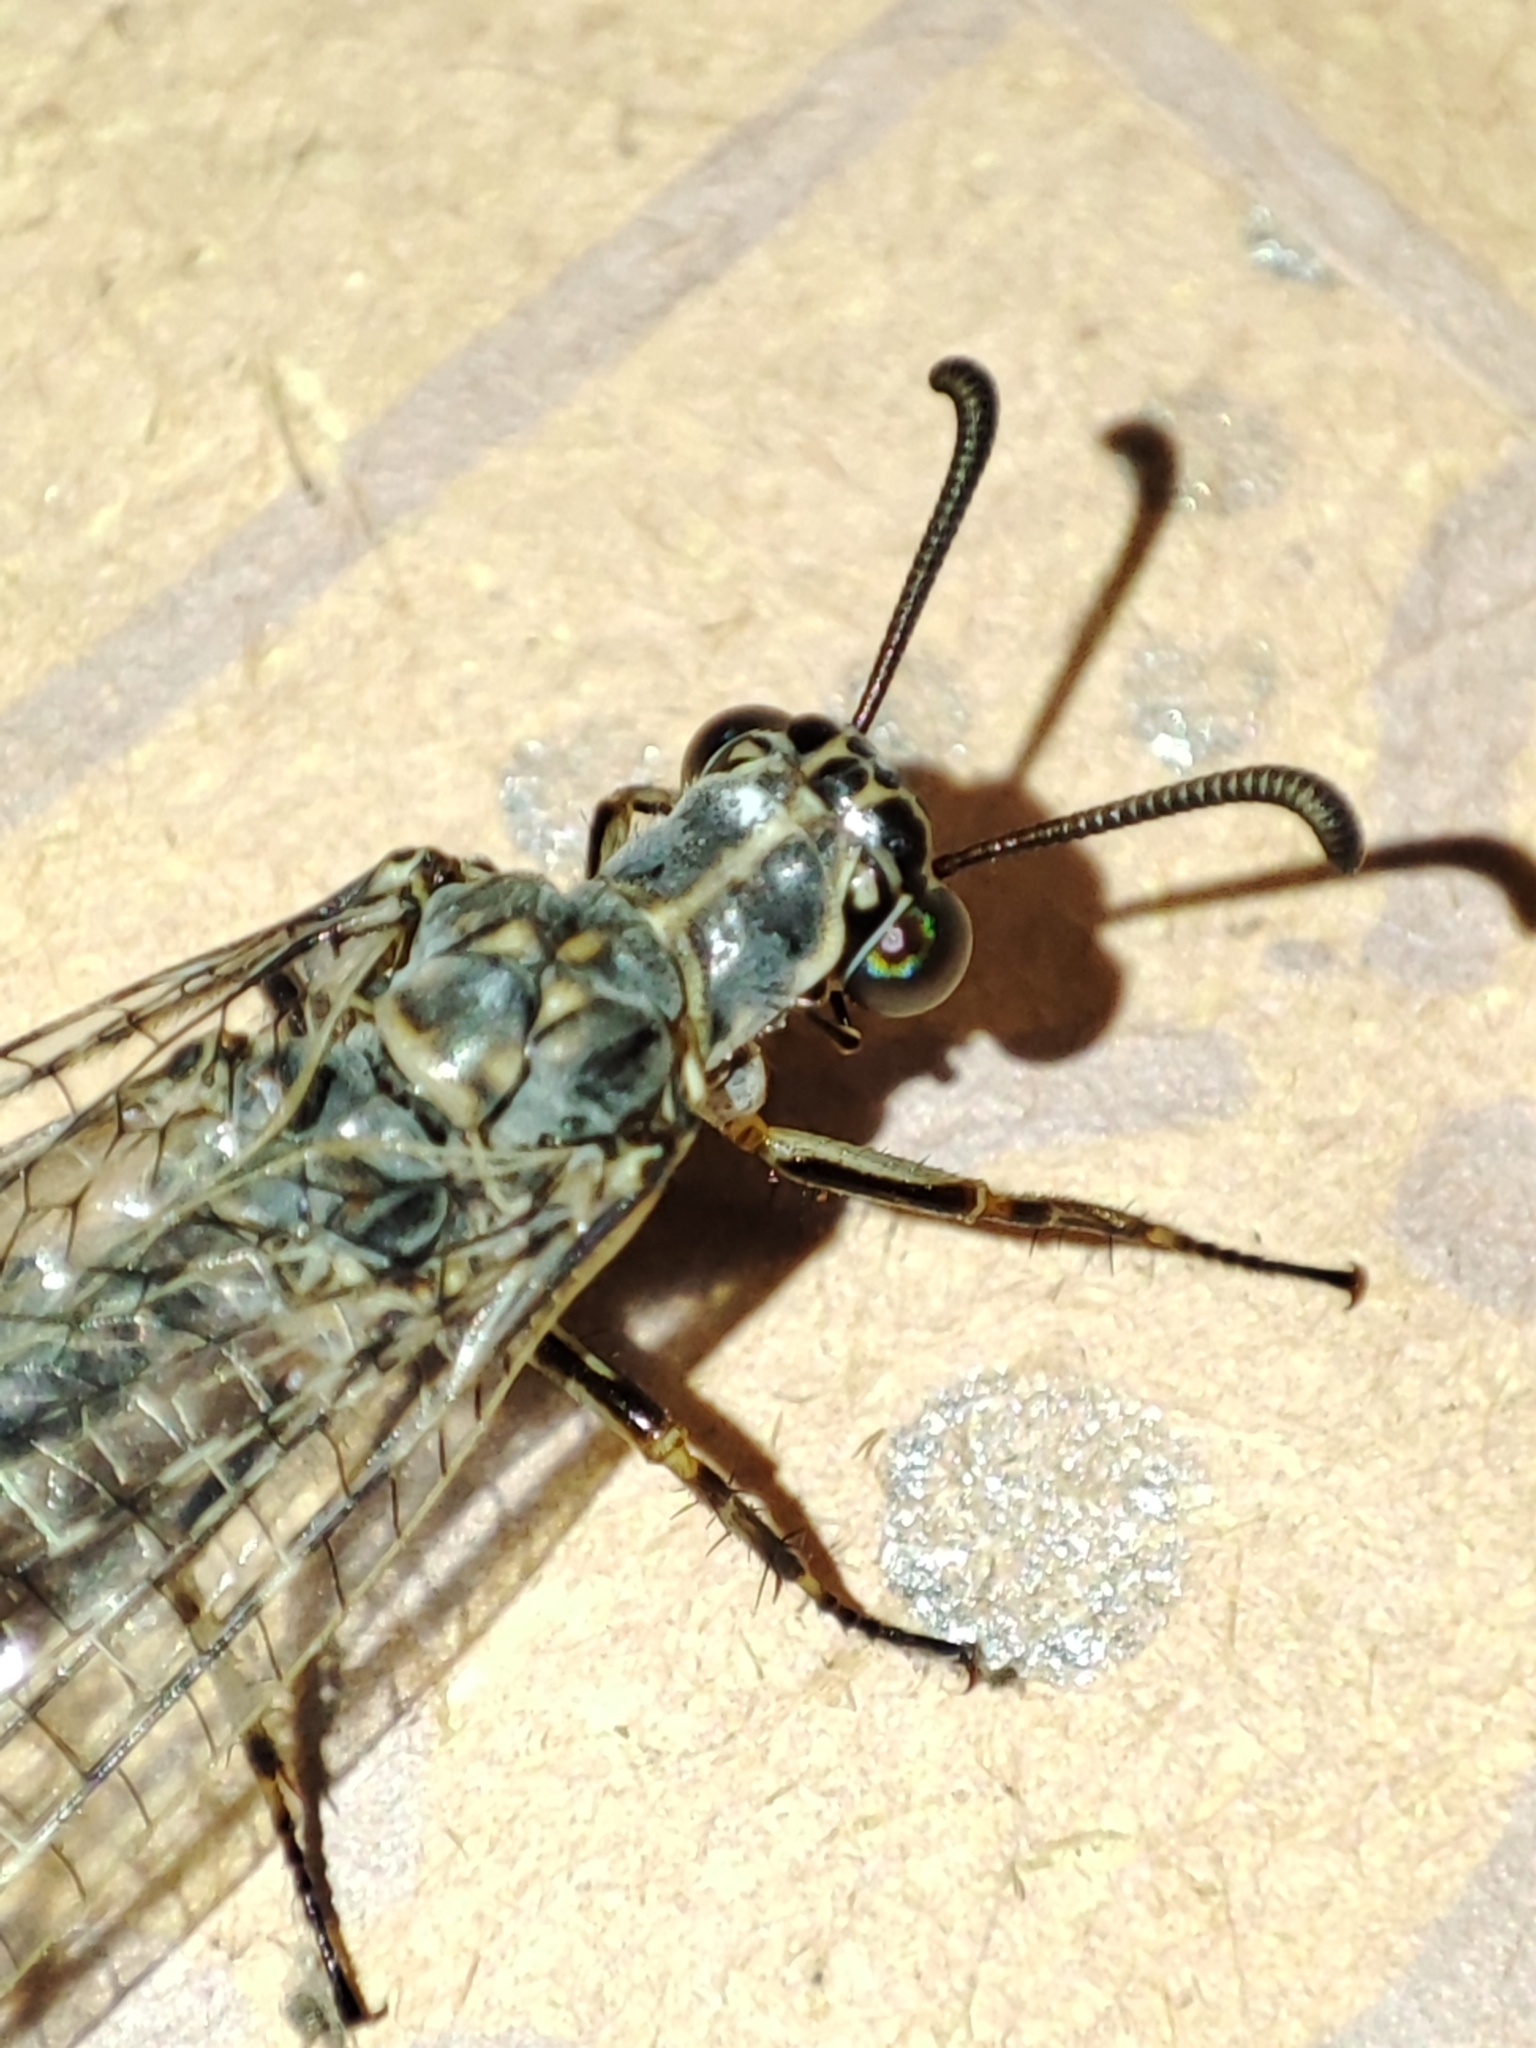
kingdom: Animalia
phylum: Arthropoda
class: Insecta
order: Neuroptera
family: Myrmeleontidae
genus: Euroleon
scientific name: Euroleon nostras
